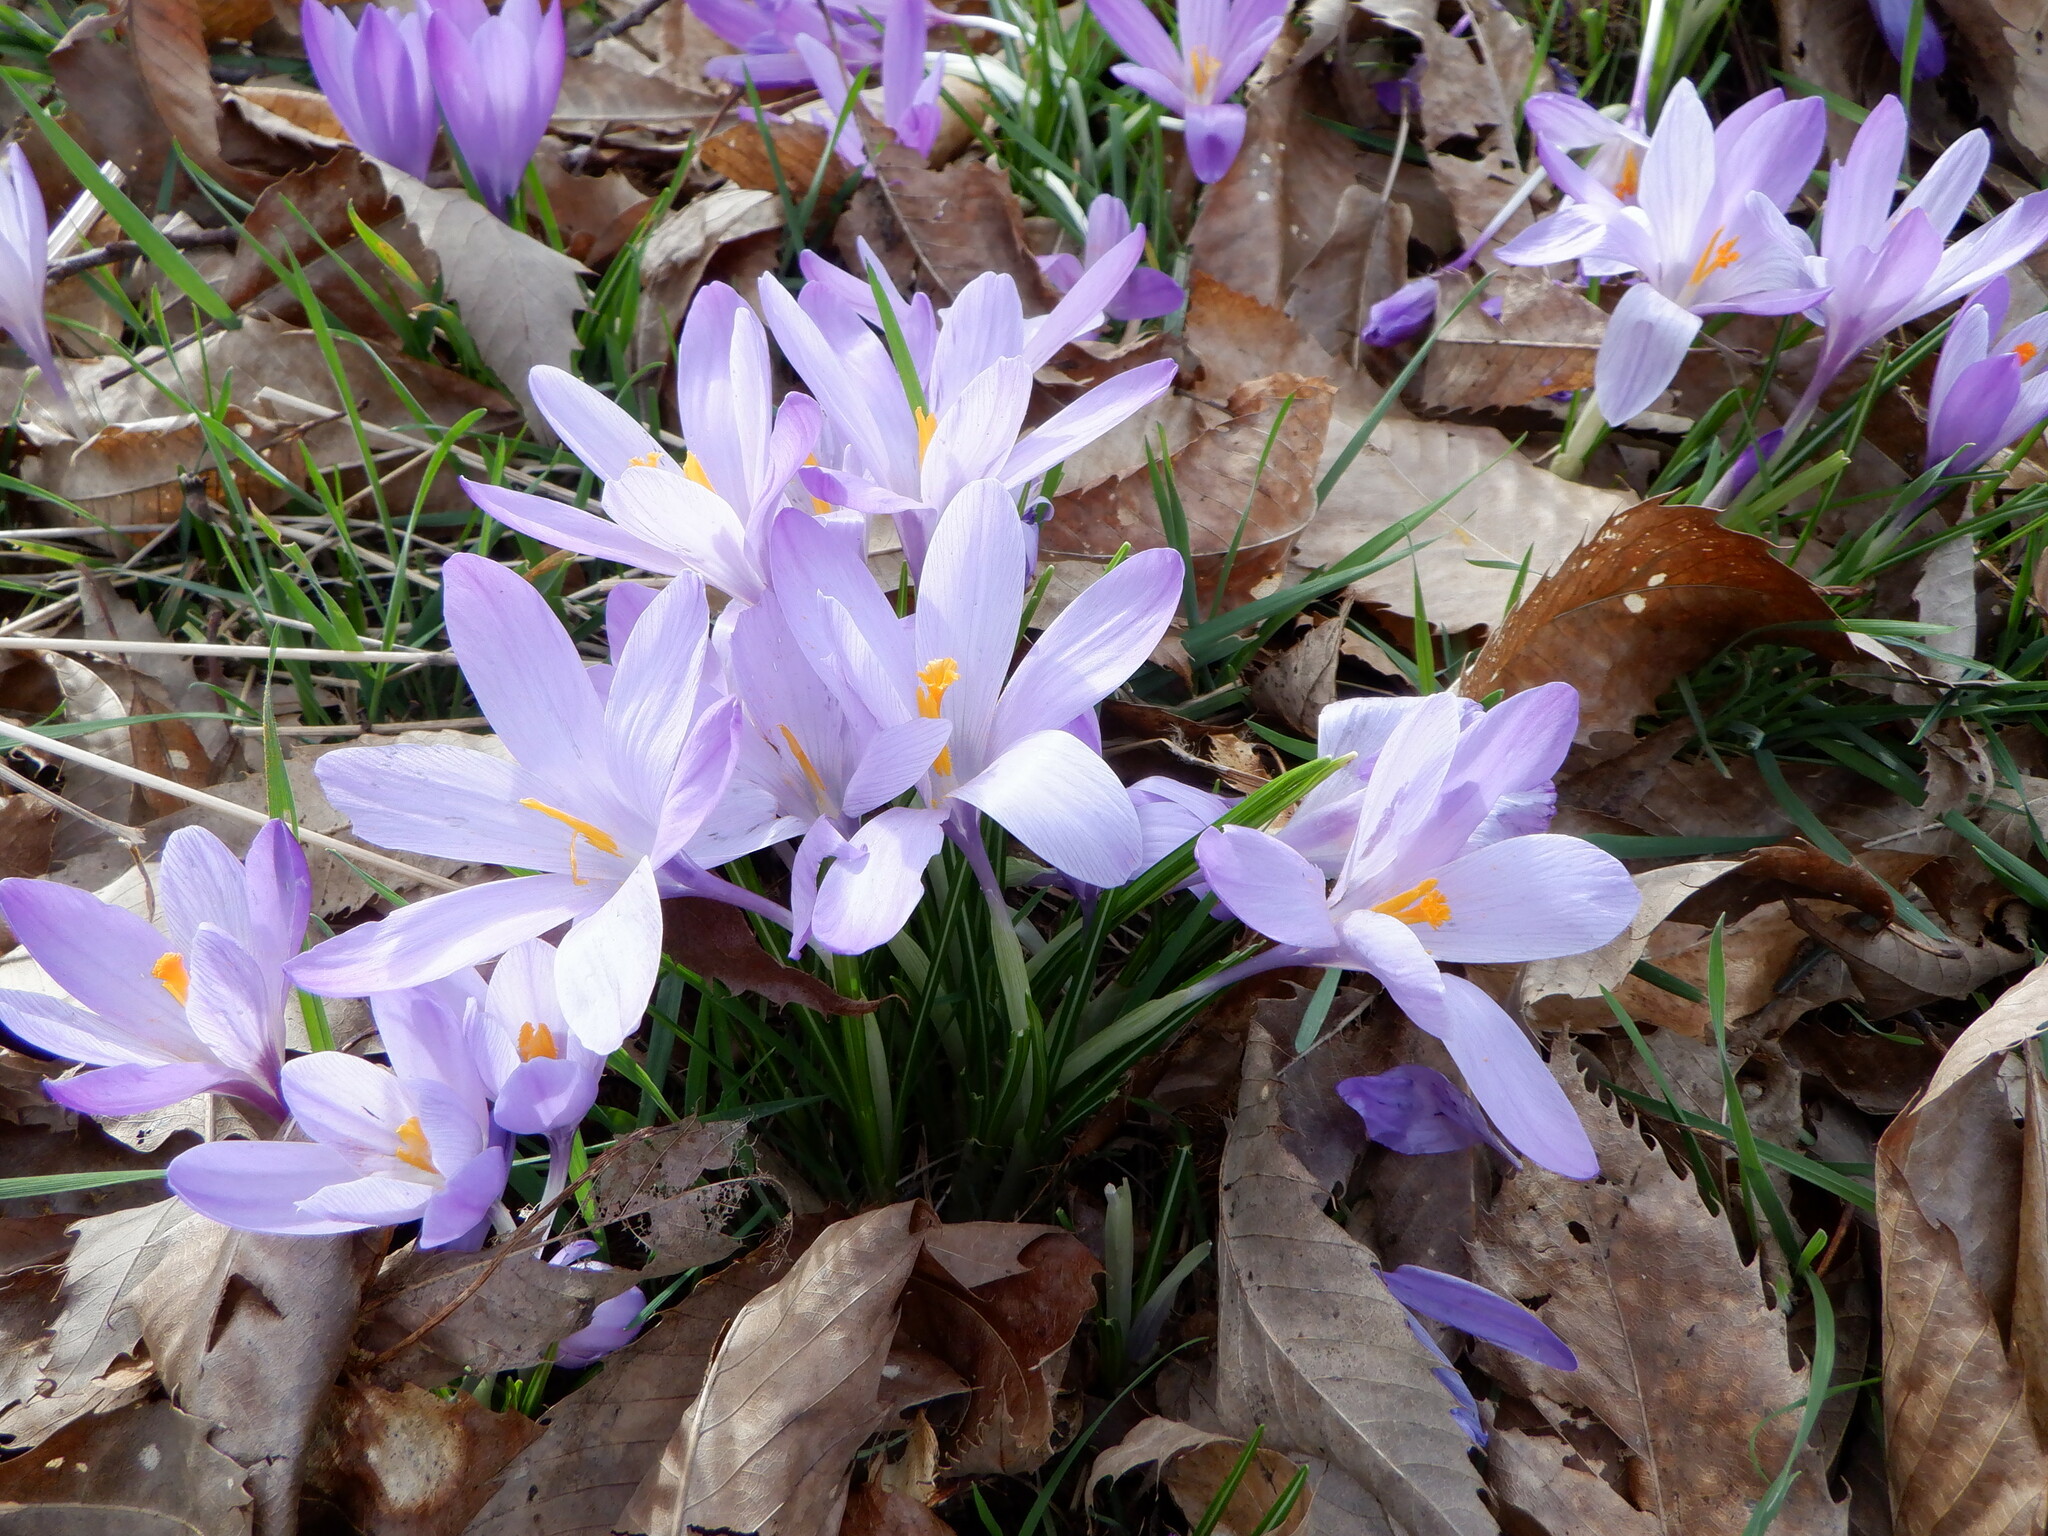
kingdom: Plantae
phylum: Tracheophyta
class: Liliopsida
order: Asparagales
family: Iridaceae
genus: Crocus
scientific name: Crocus neapolitanus
